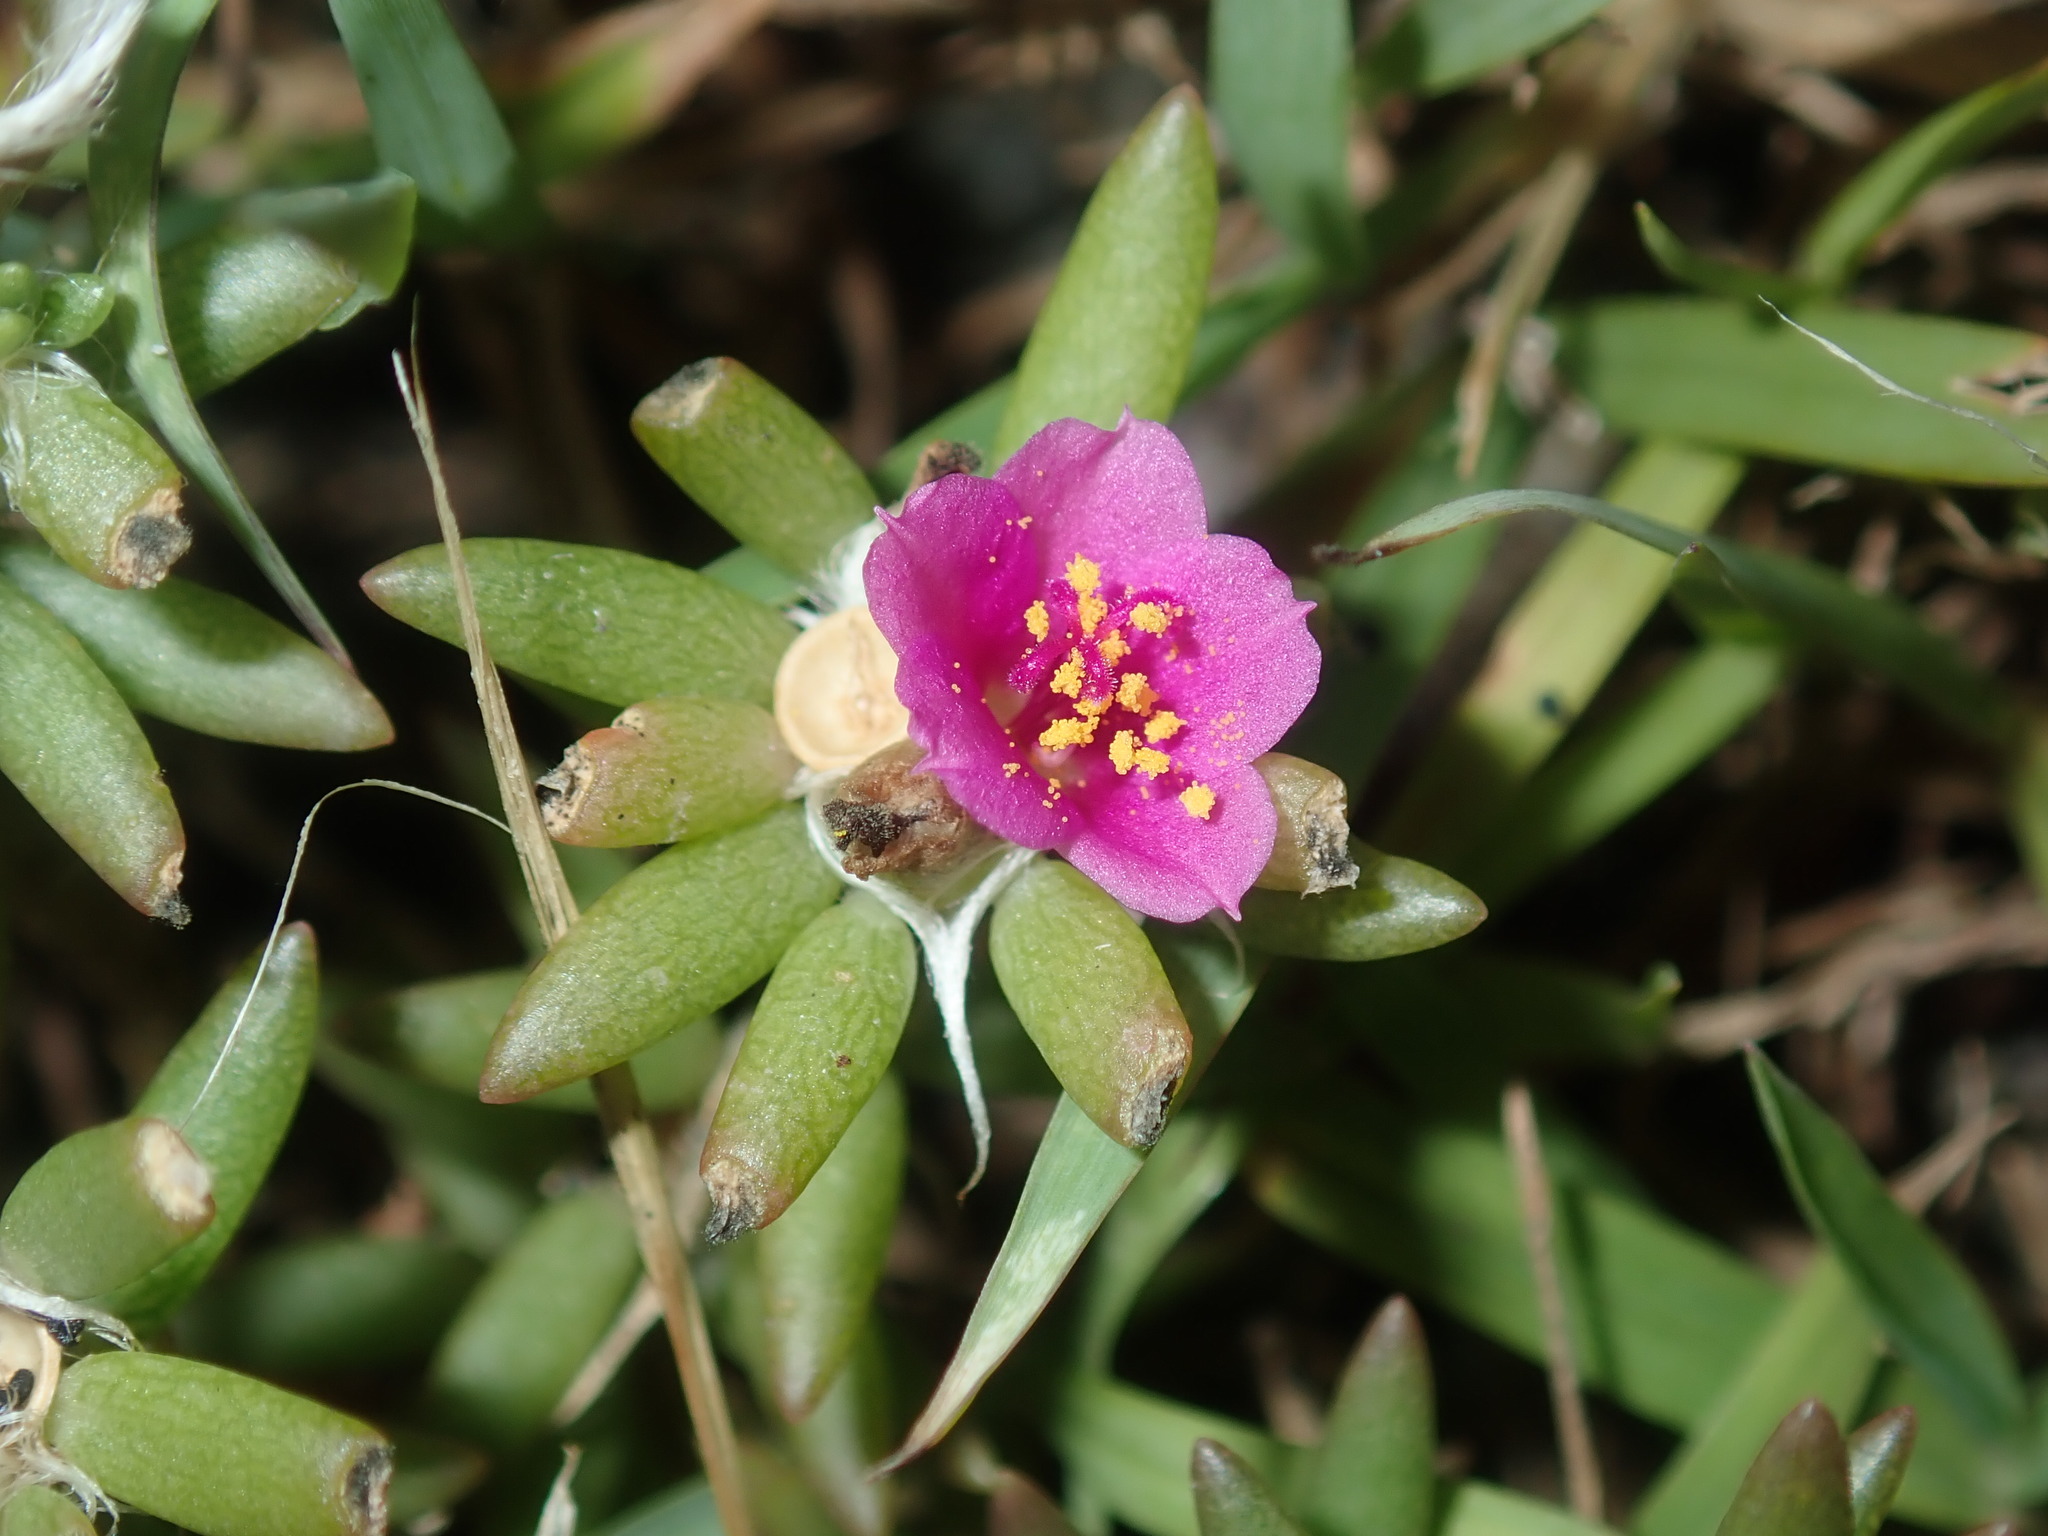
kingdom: Plantae
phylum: Tracheophyta
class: Magnoliopsida
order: Caryophyllales
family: Portulacaceae
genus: Portulaca
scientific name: Portulaca pilosa
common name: Kiss me quick
